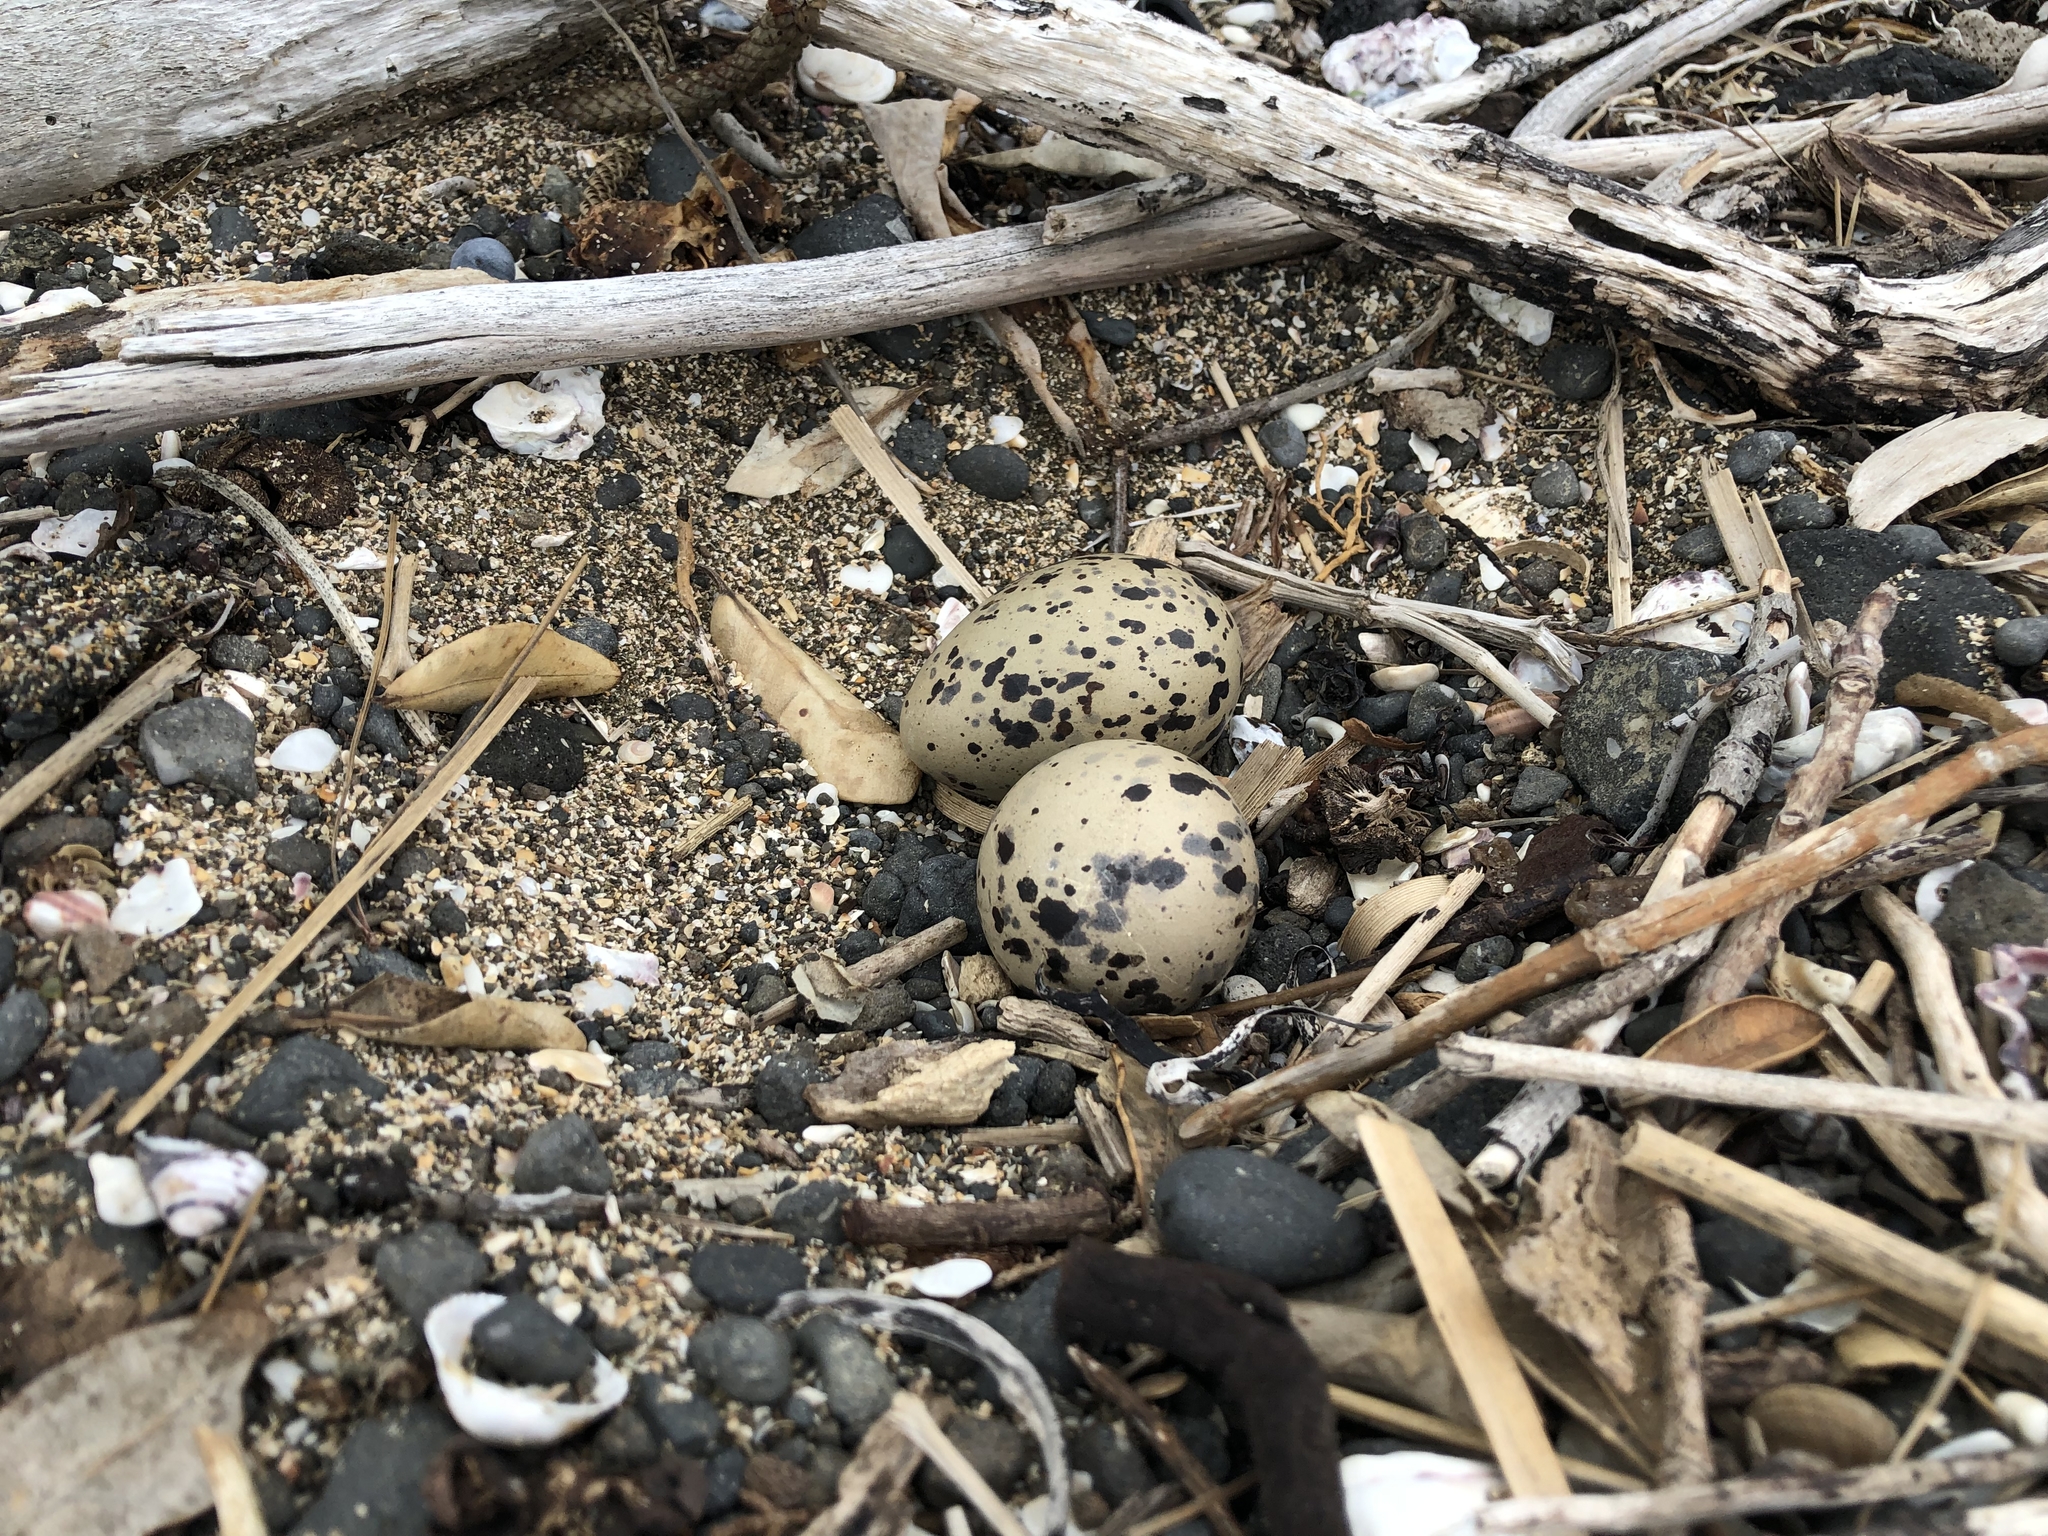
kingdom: Animalia
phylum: Chordata
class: Aves
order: Charadriiformes
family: Haematopodidae
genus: Haematopus
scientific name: Haematopus unicolor
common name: Variable oystercatcher
